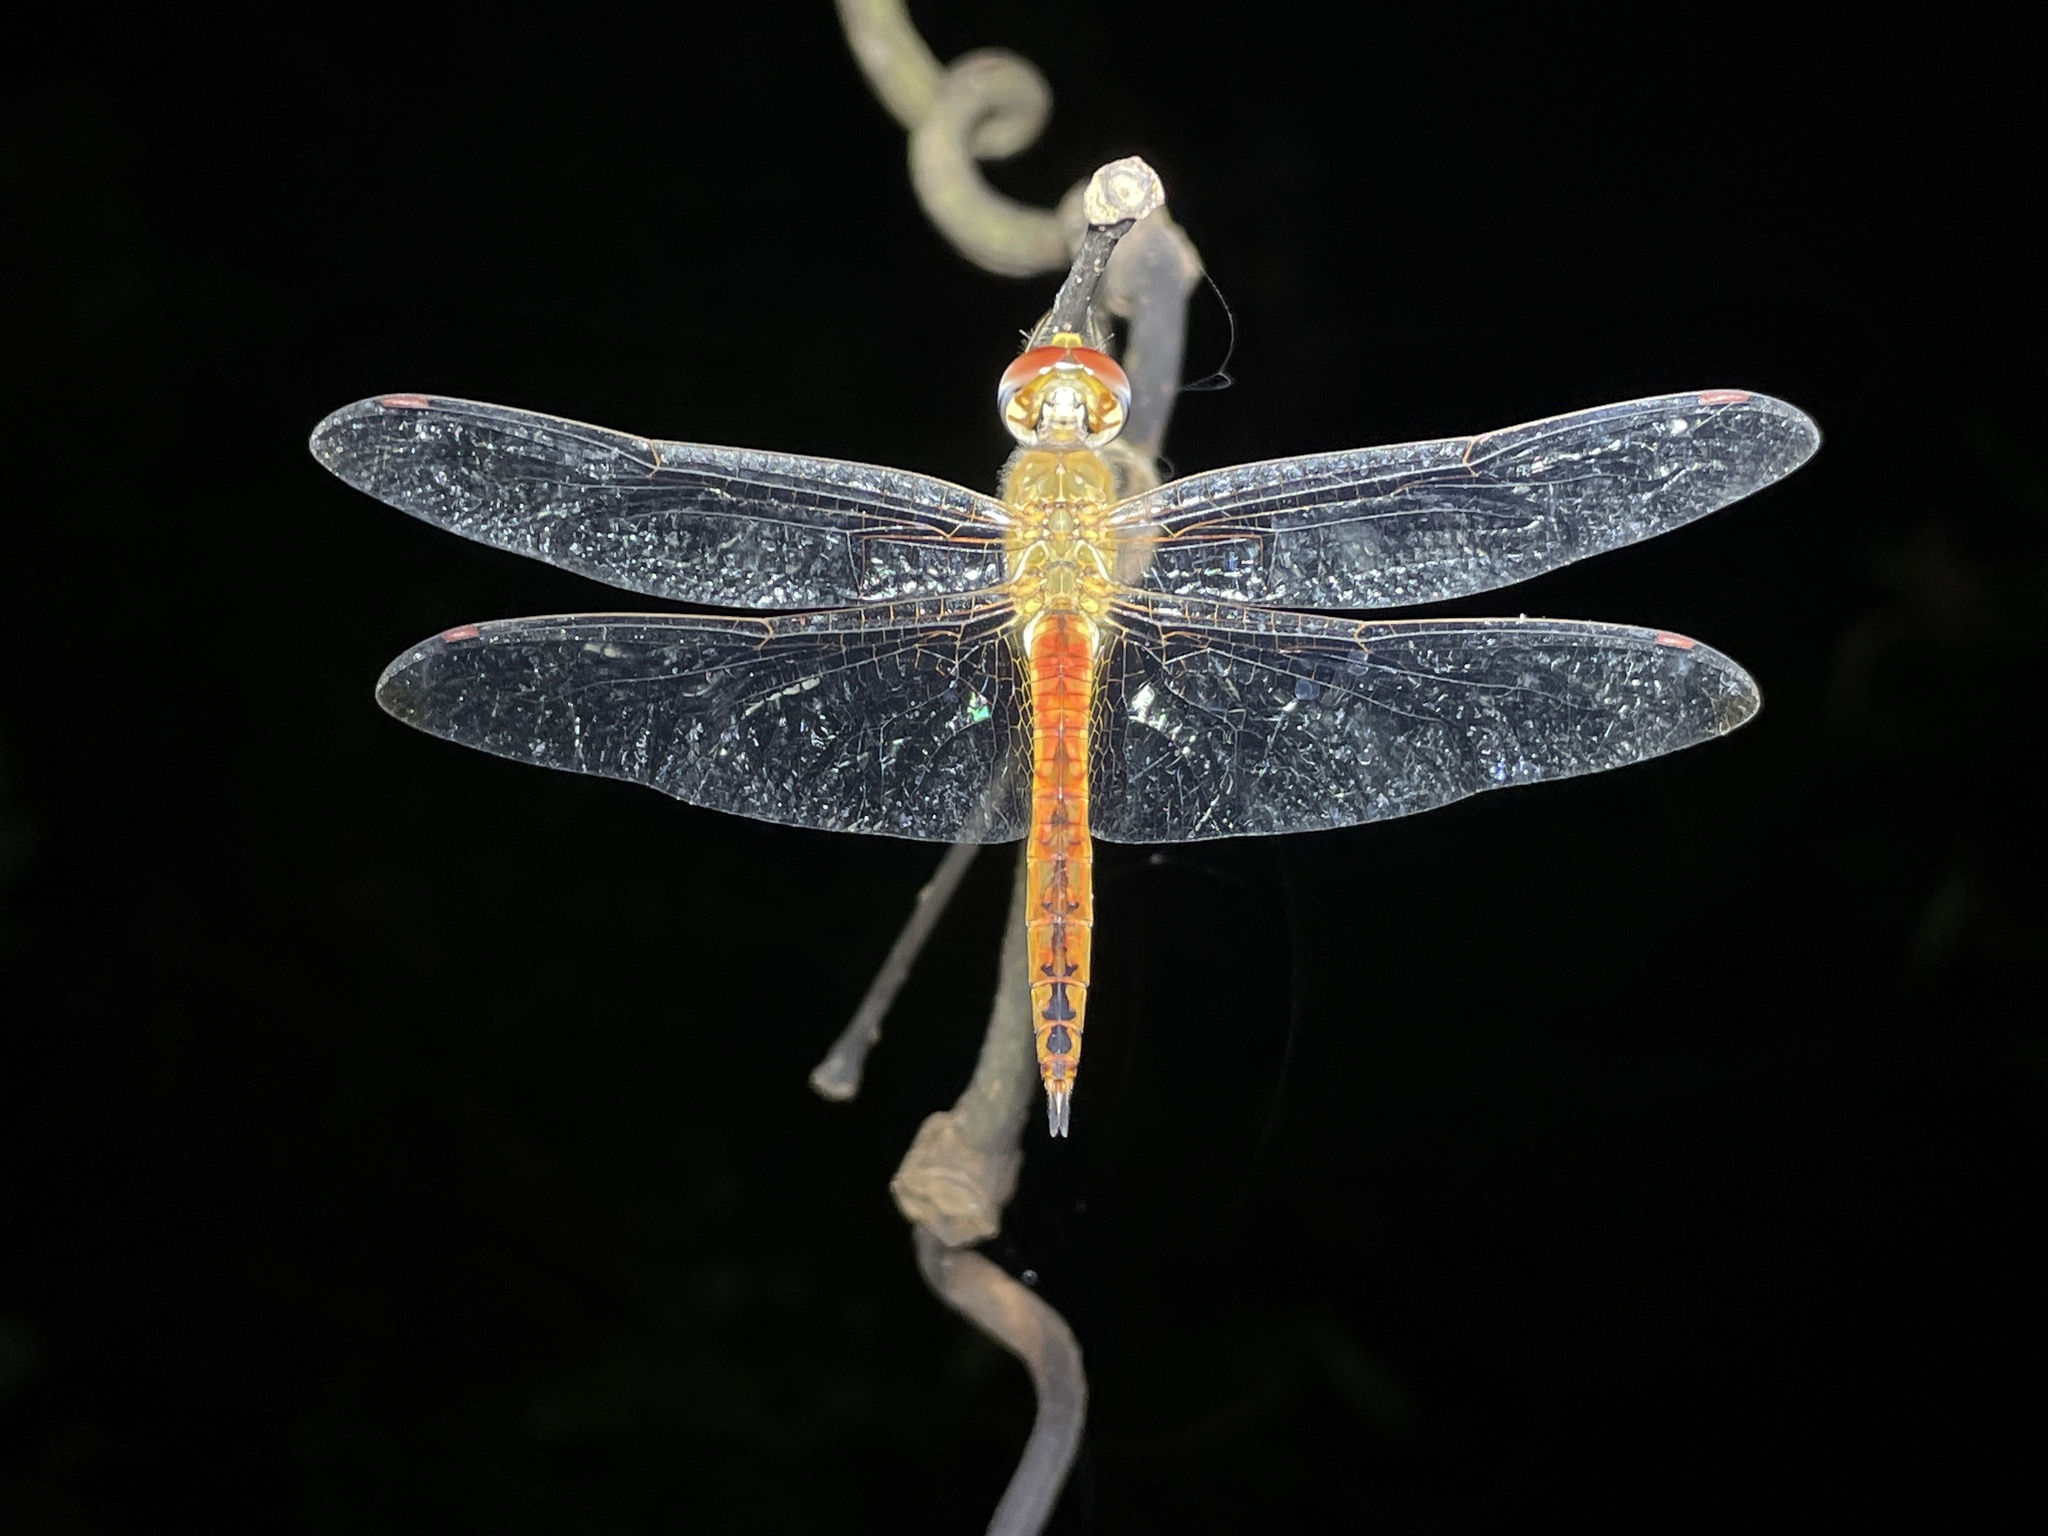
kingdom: Animalia
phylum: Arthropoda
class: Insecta
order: Odonata
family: Libellulidae
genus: Pantala
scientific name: Pantala flavescens
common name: Wandering glider
